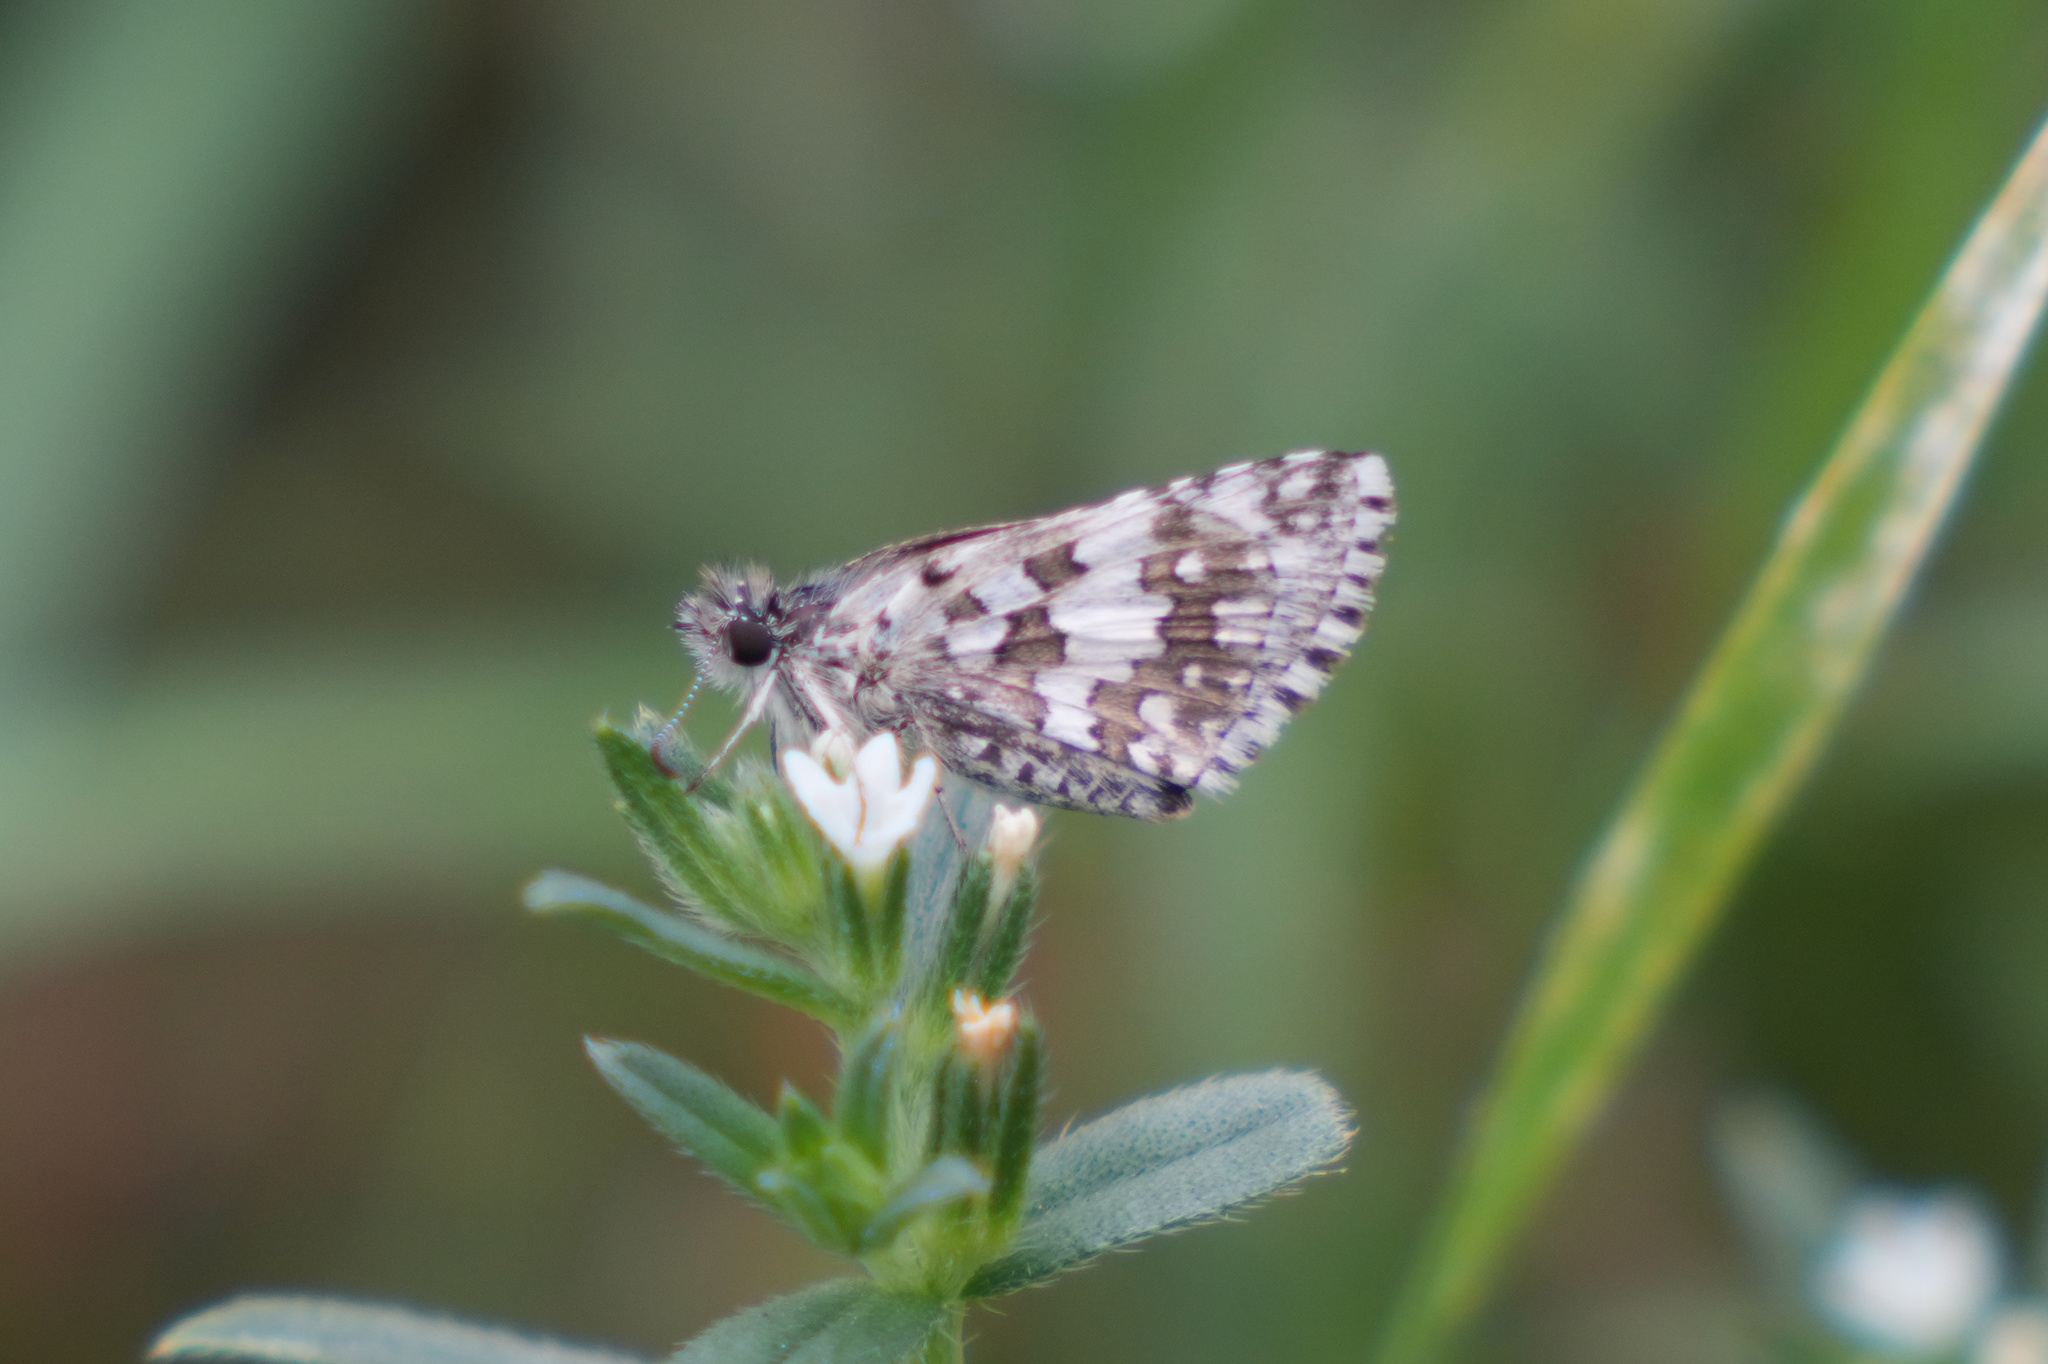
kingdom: Animalia
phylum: Arthropoda
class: Insecta
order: Lepidoptera
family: Hesperiidae
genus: Burnsius
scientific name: Burnsius
